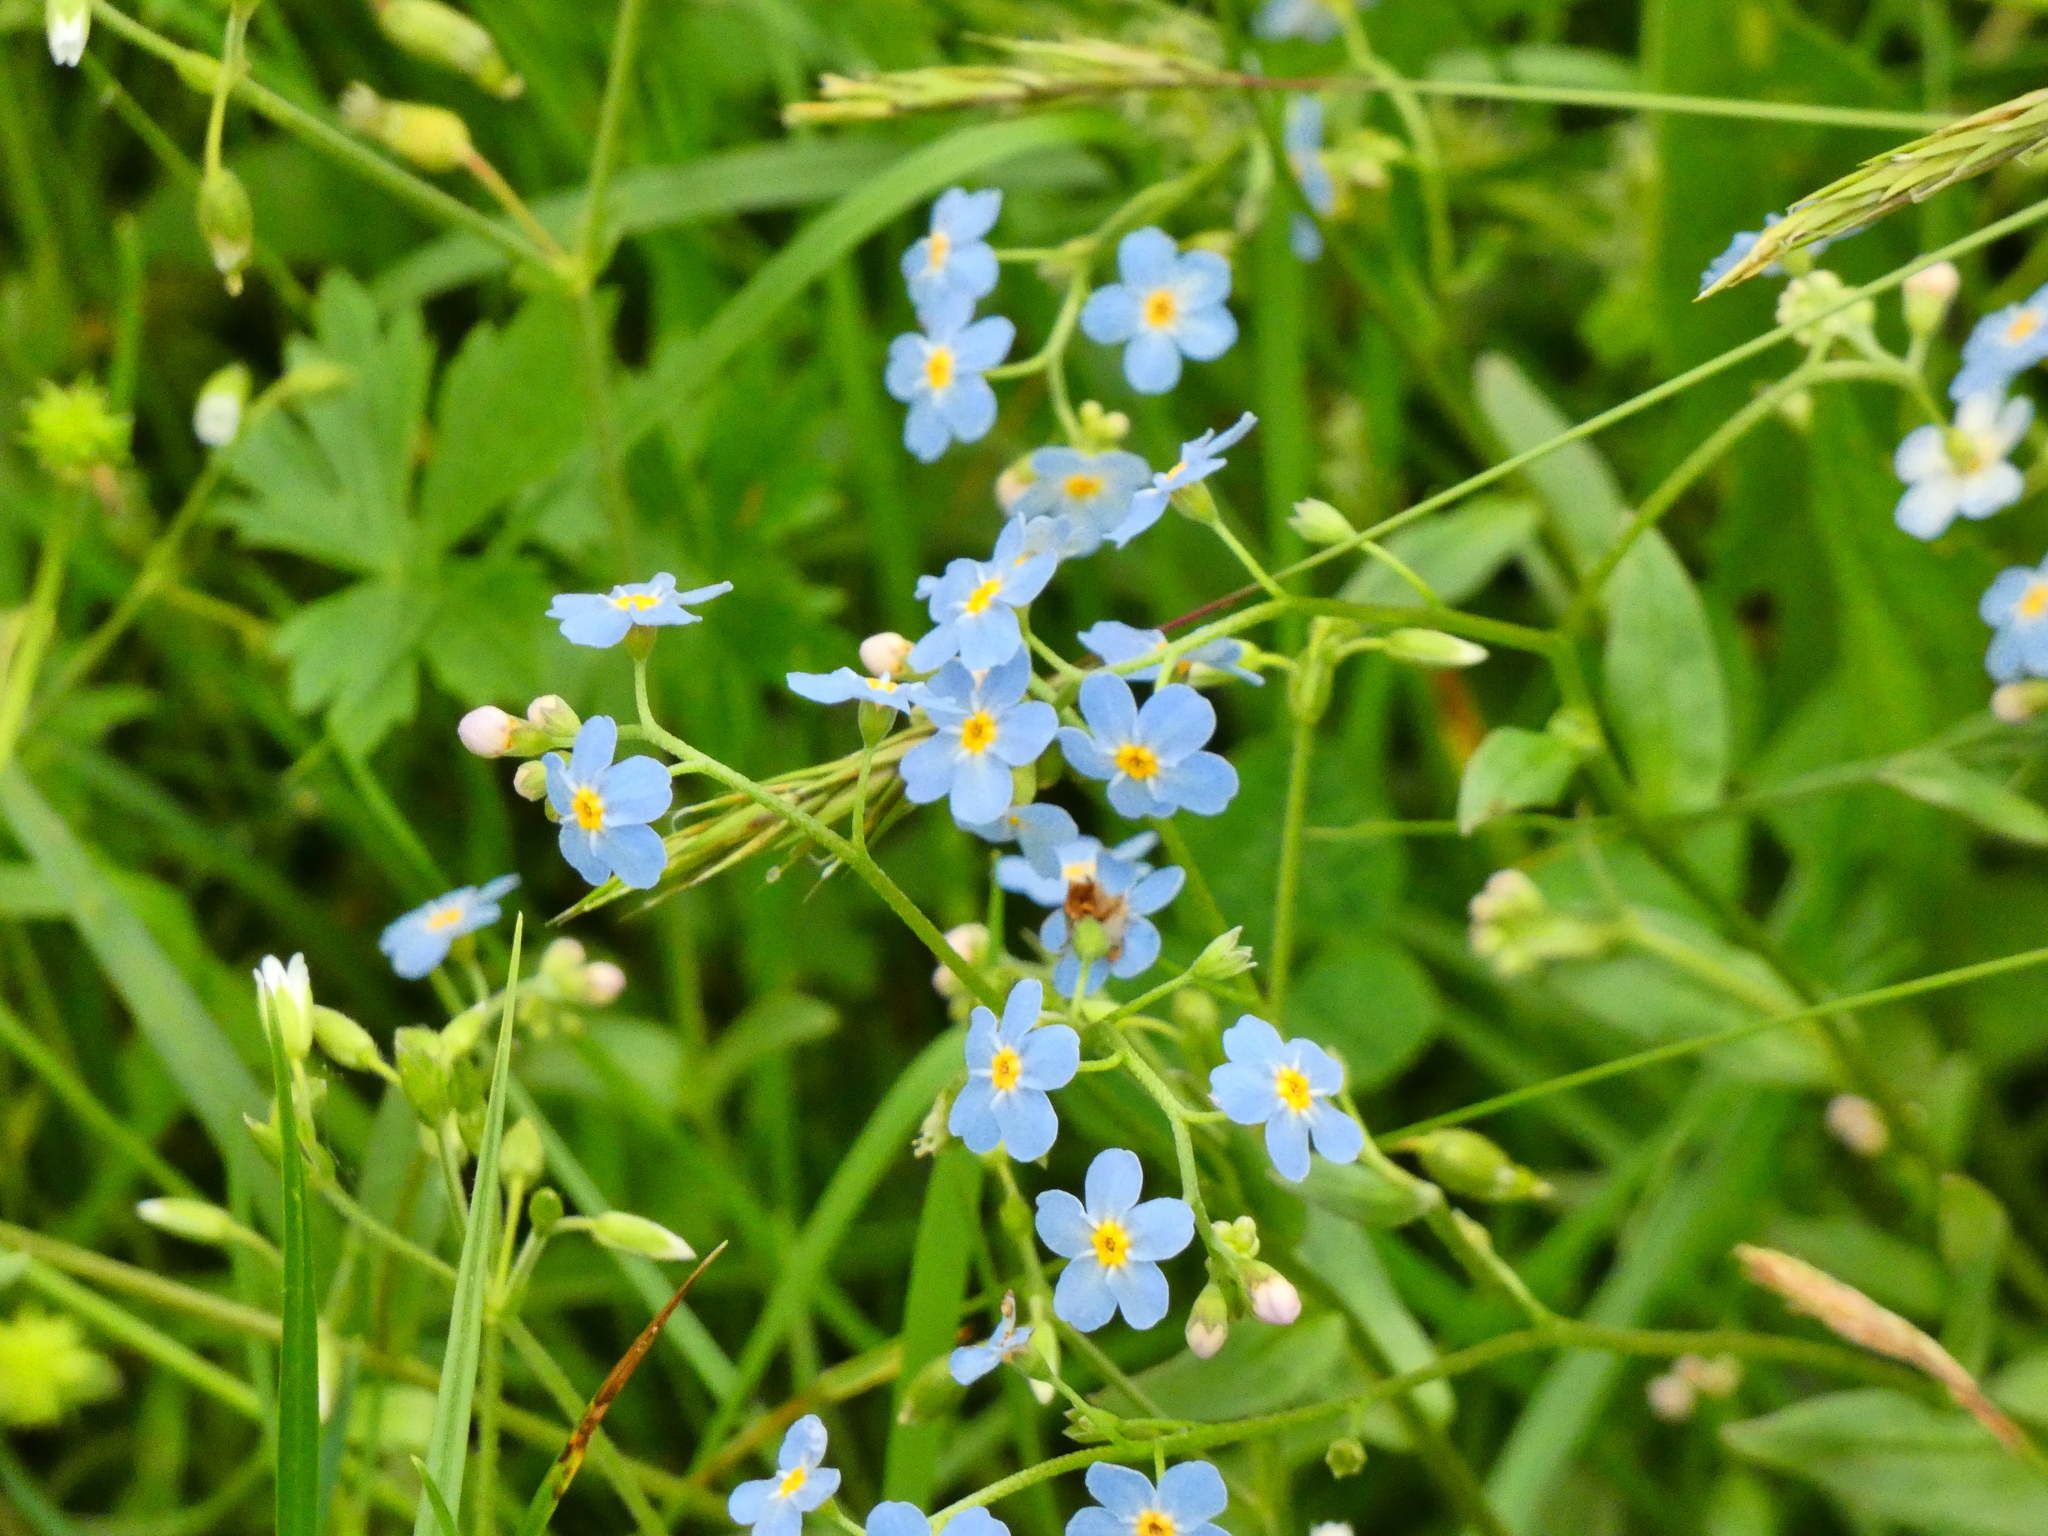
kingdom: Plantae
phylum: Tracheophyta
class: Magnoliopsida
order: Boraginales
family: Boraginaceae
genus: Myosotis
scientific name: Myosotis scorpioides
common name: Water forget-me-not
